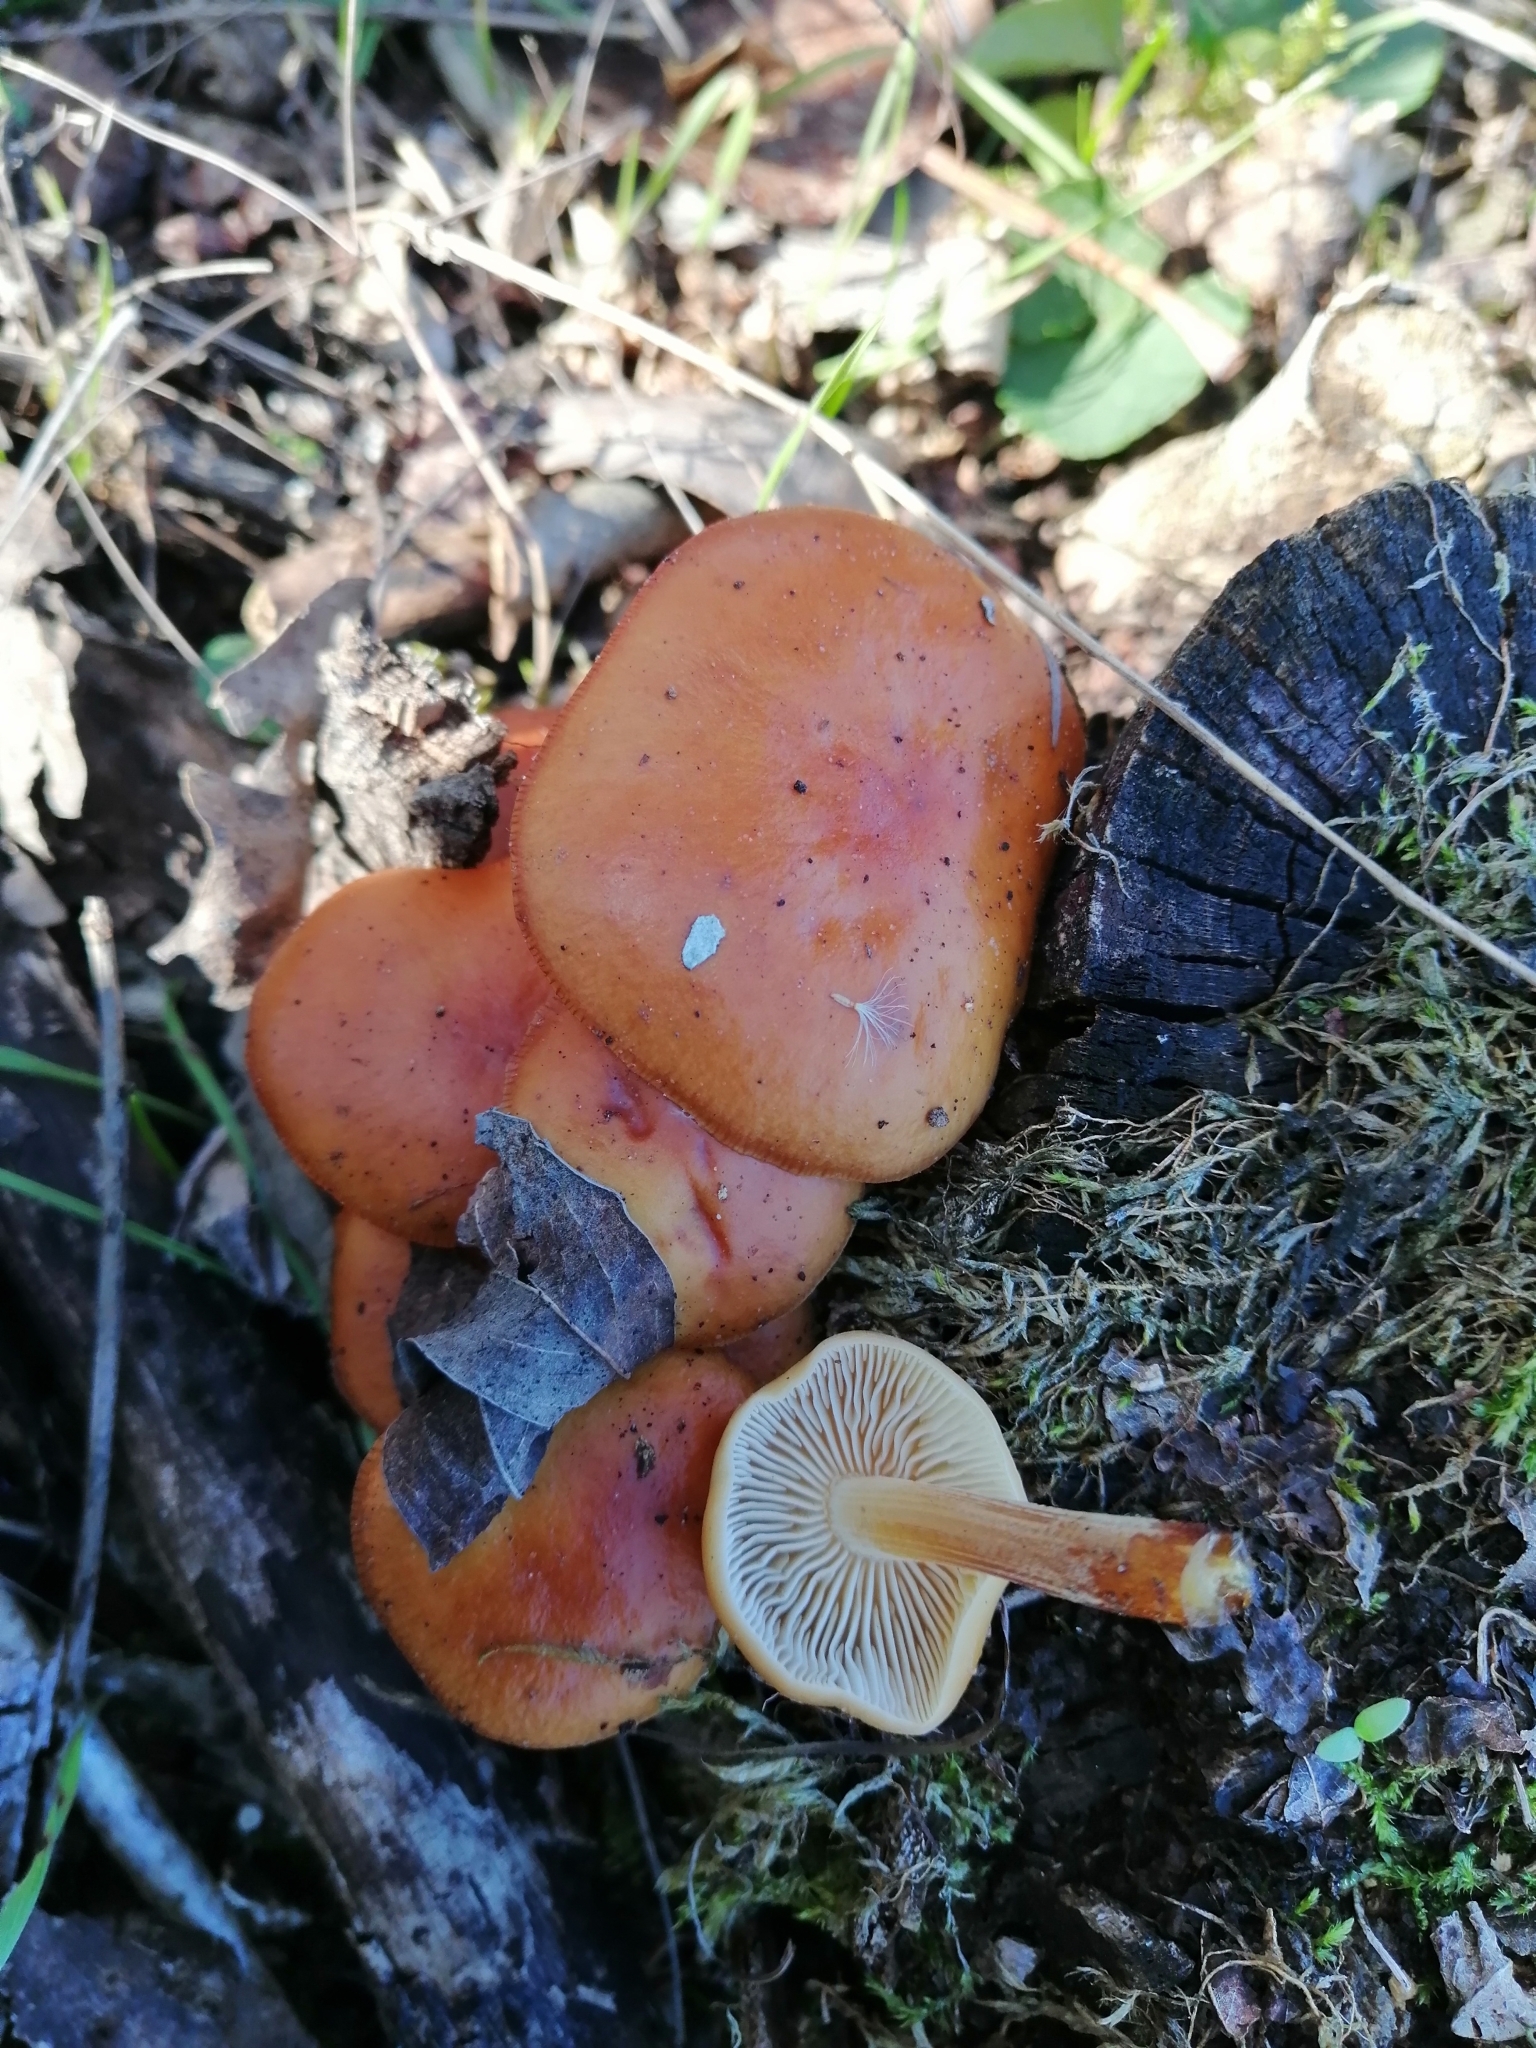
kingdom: Fungi
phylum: Basidiomycota
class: Agaricomycetes
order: Agaricales
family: Physalacriaceae
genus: Flammulina
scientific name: Flammulina
